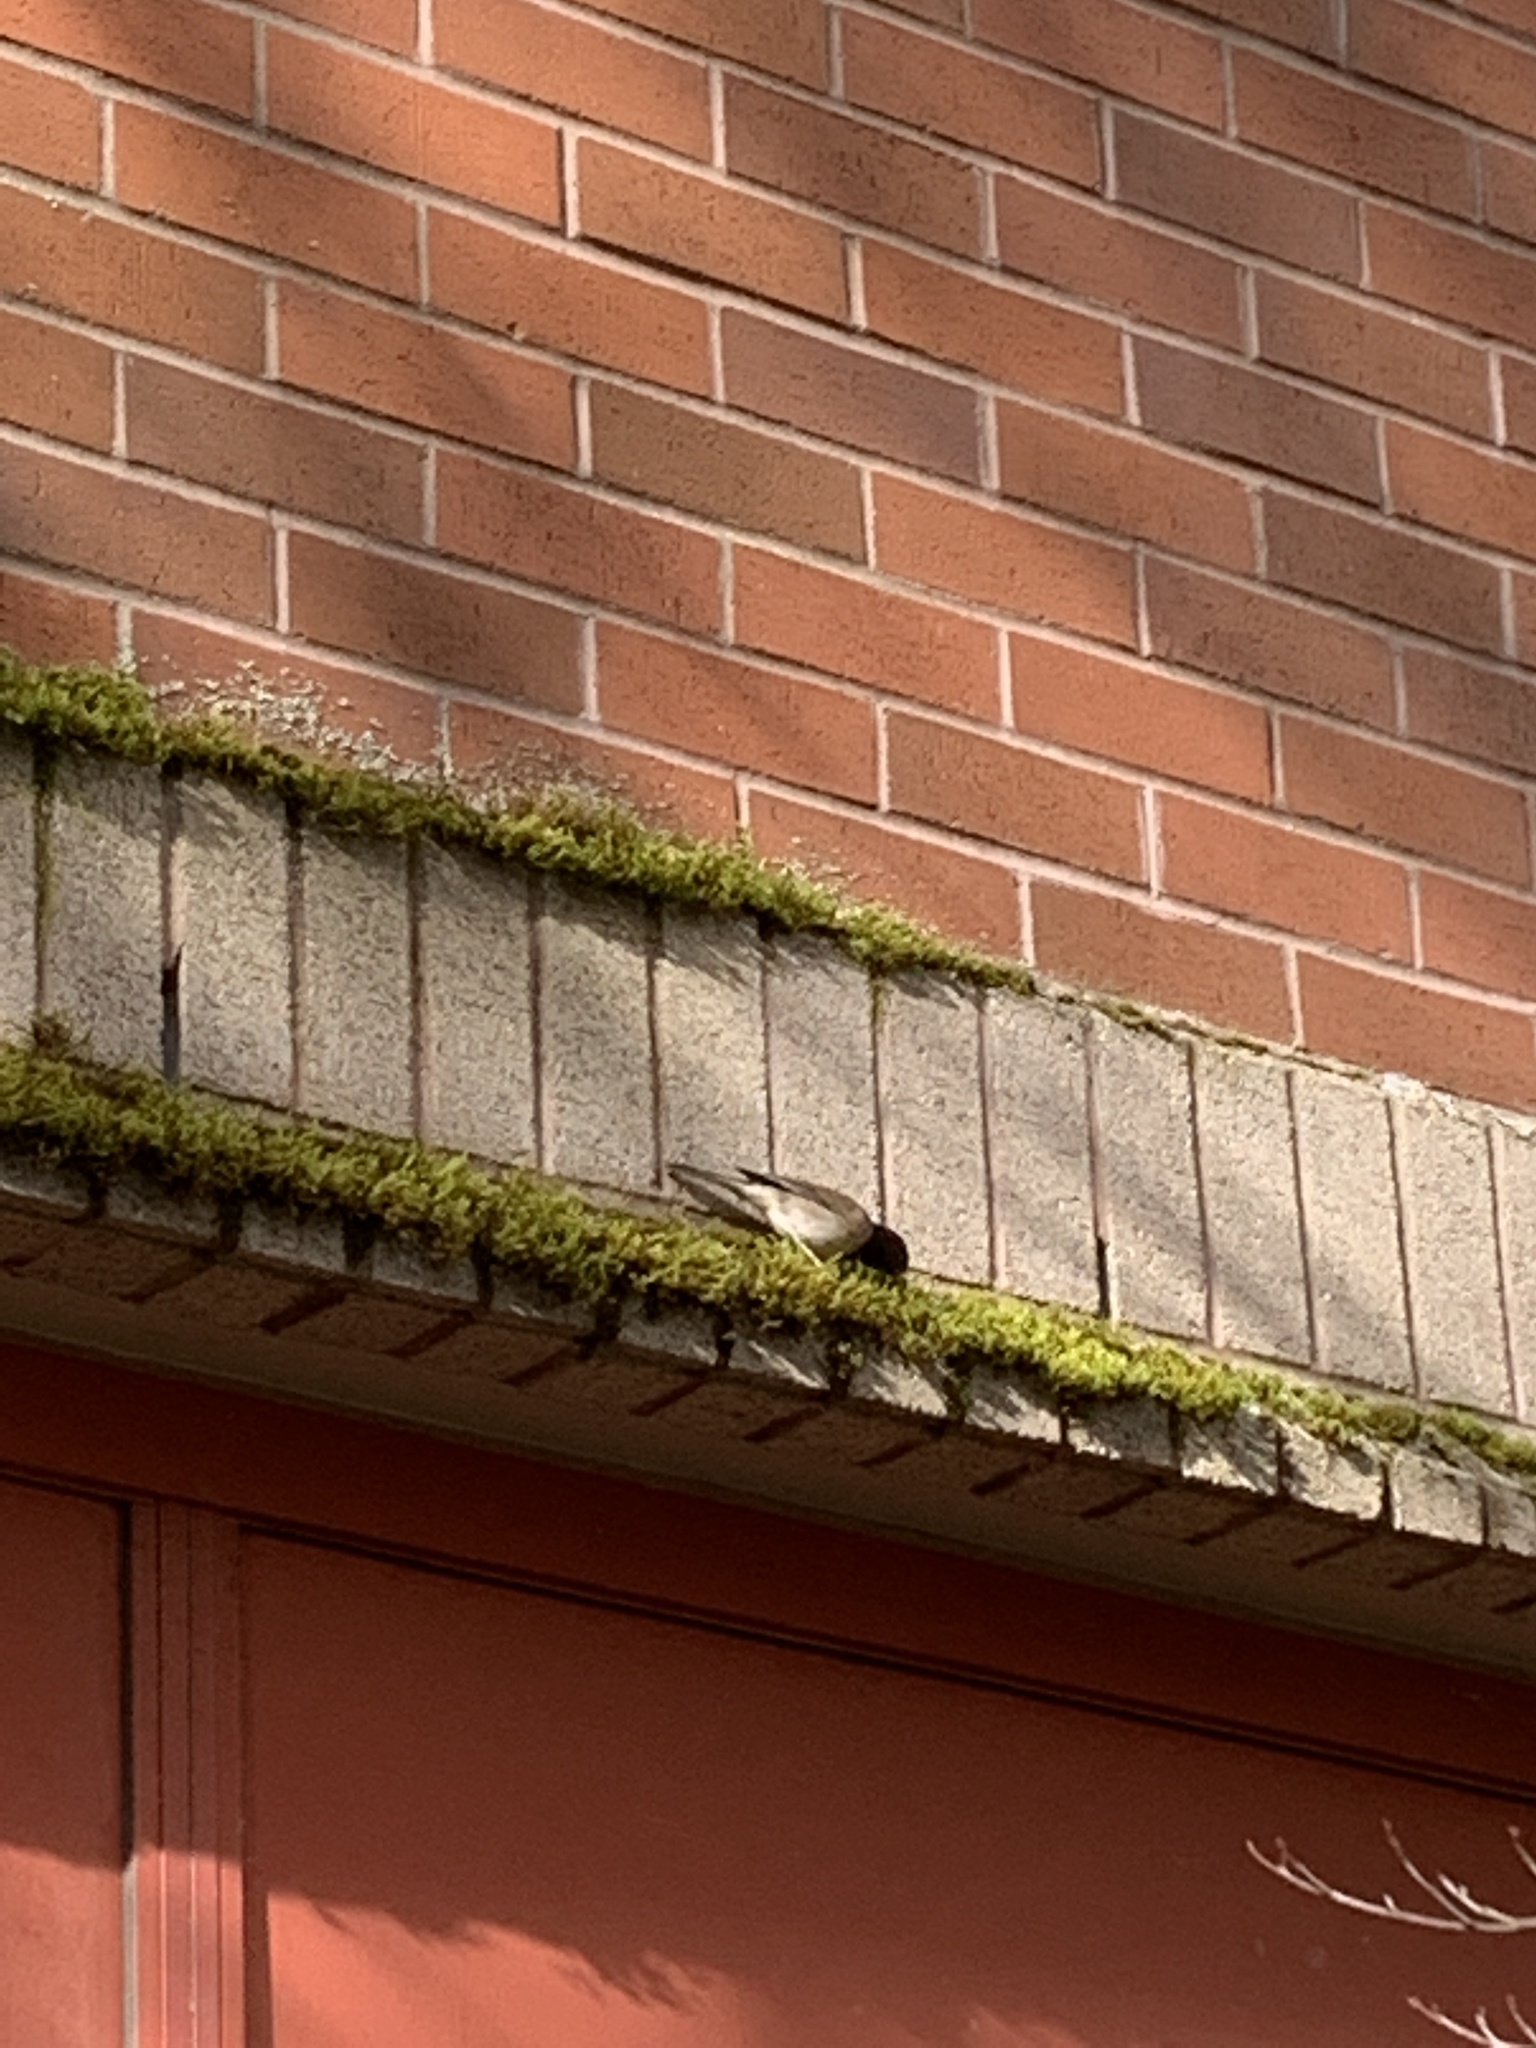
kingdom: Animalia
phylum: Chordata
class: Aves
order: Passeriformes
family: Passerellidae
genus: Junco
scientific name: Junco hyemalis
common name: Dark-eyed junco
